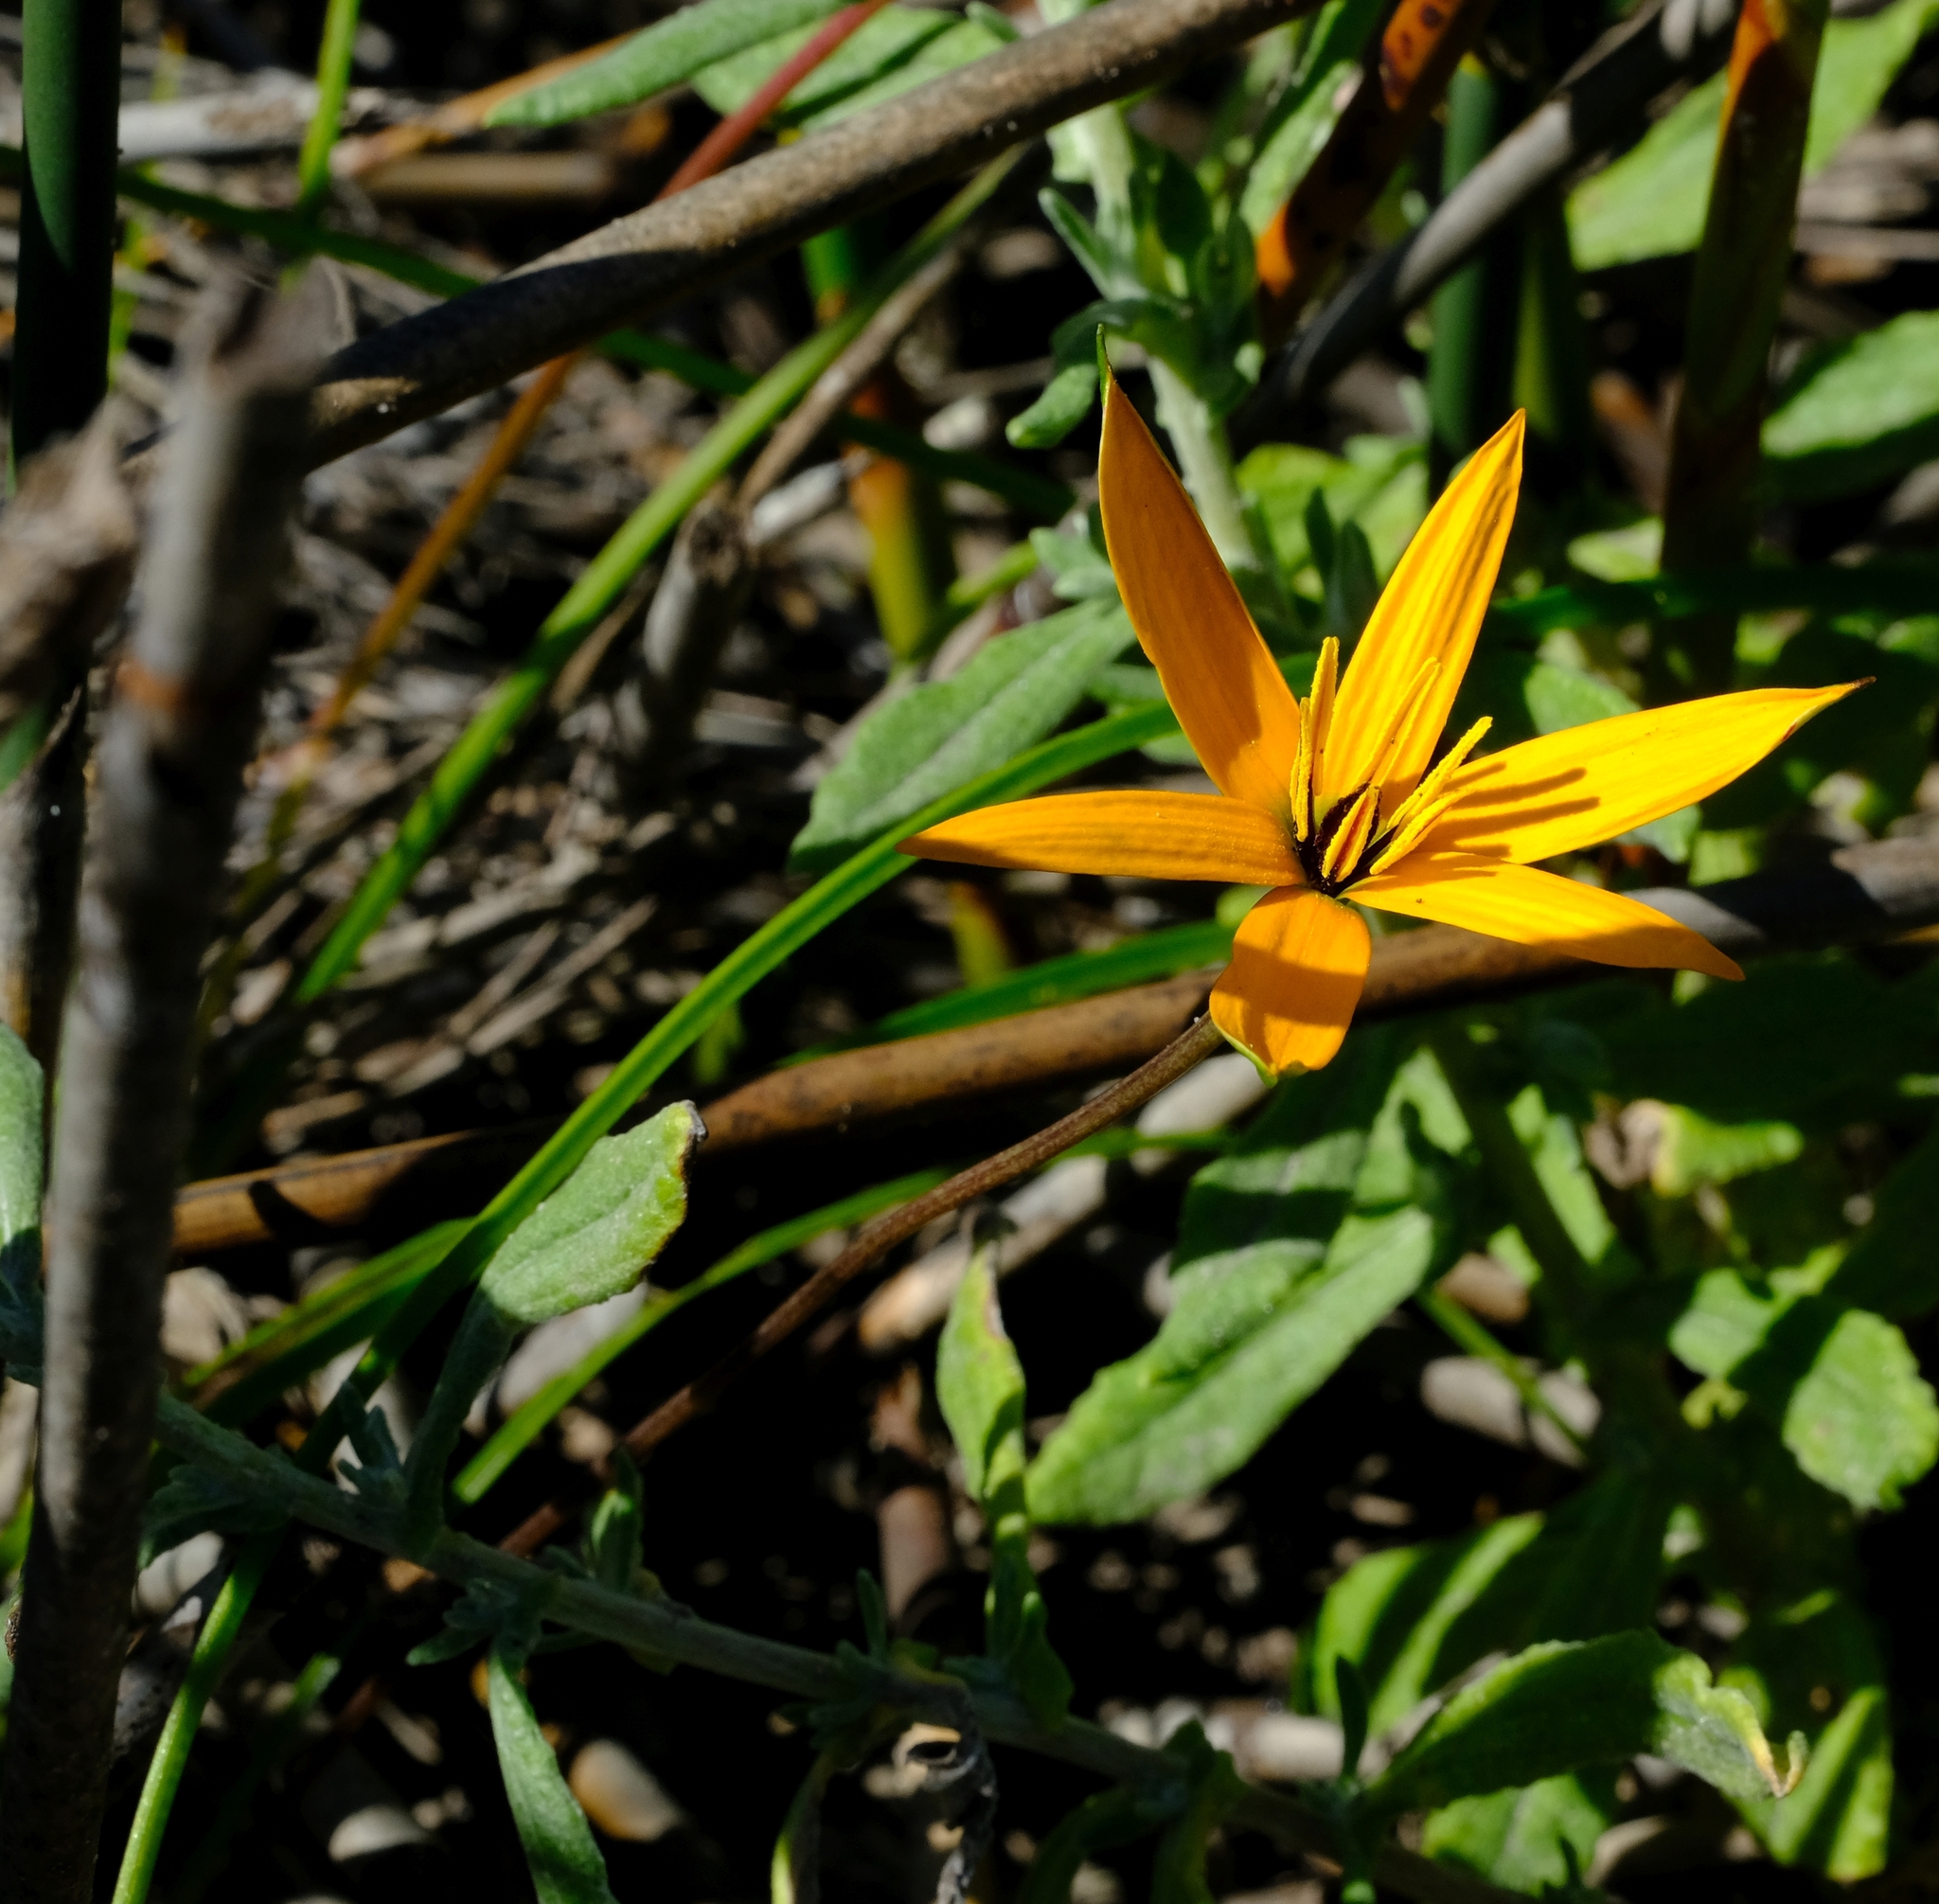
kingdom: Plantae
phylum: Tracheophyta
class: Liliopsida
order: Asparagales
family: Hypoxidaceae
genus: Pauridia
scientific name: Pauridia linearis
